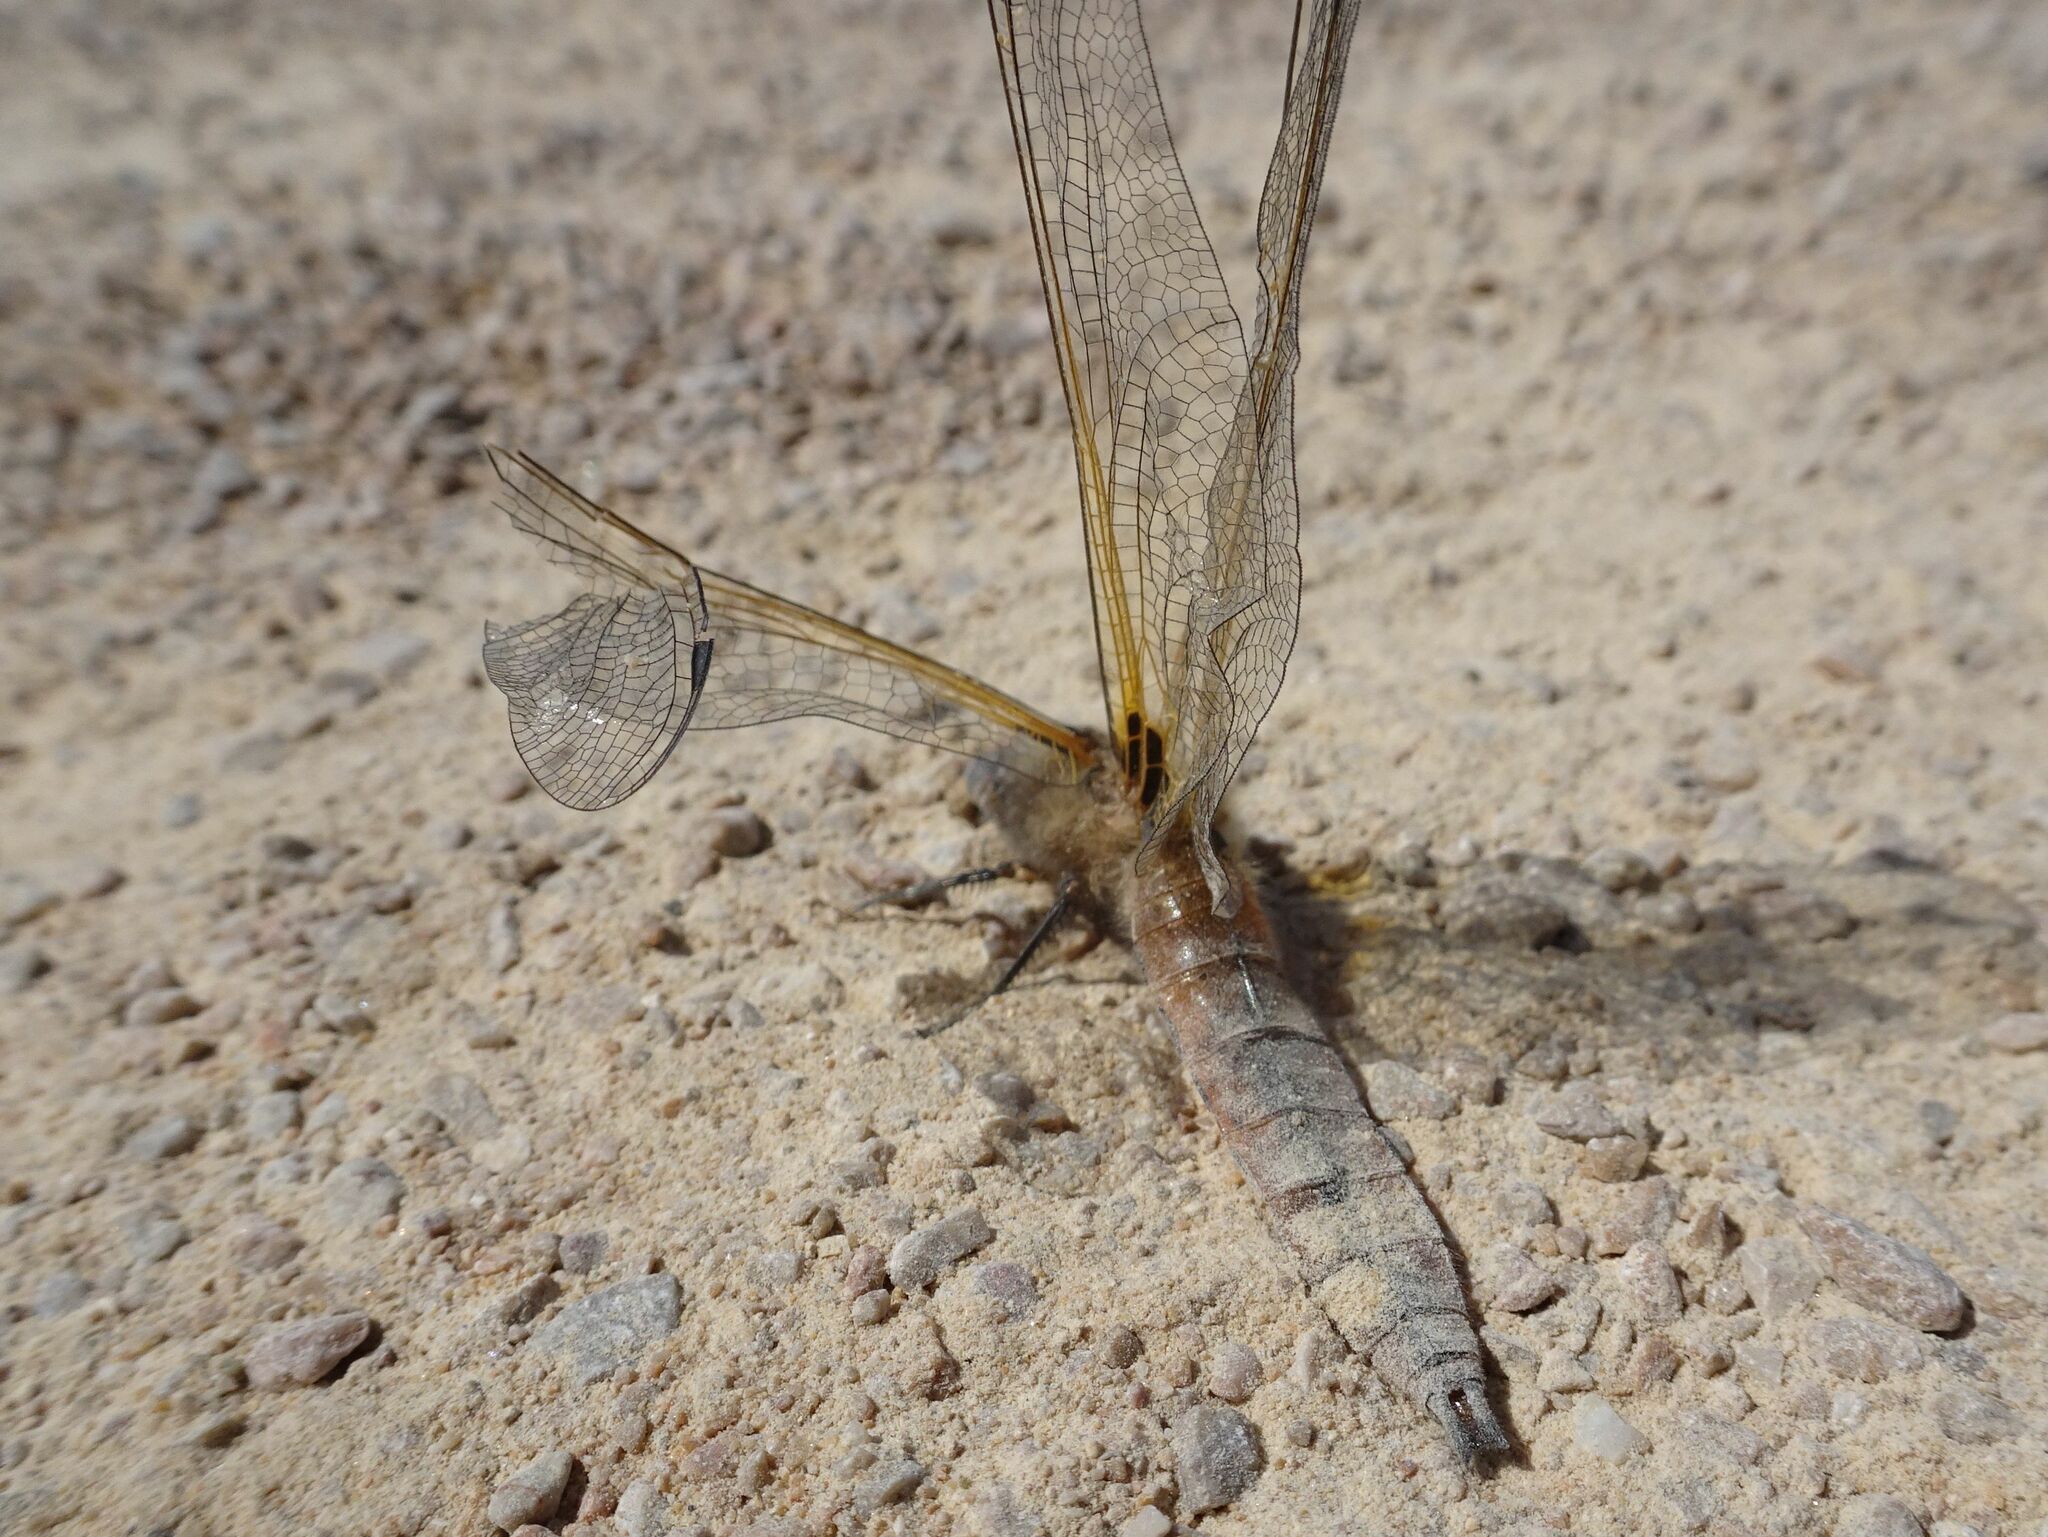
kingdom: Animalia
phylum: Arthropoda
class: Insecta
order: Odonata
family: Libellulidae
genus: Libellula
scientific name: Libellula fulva
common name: Blue chaser
